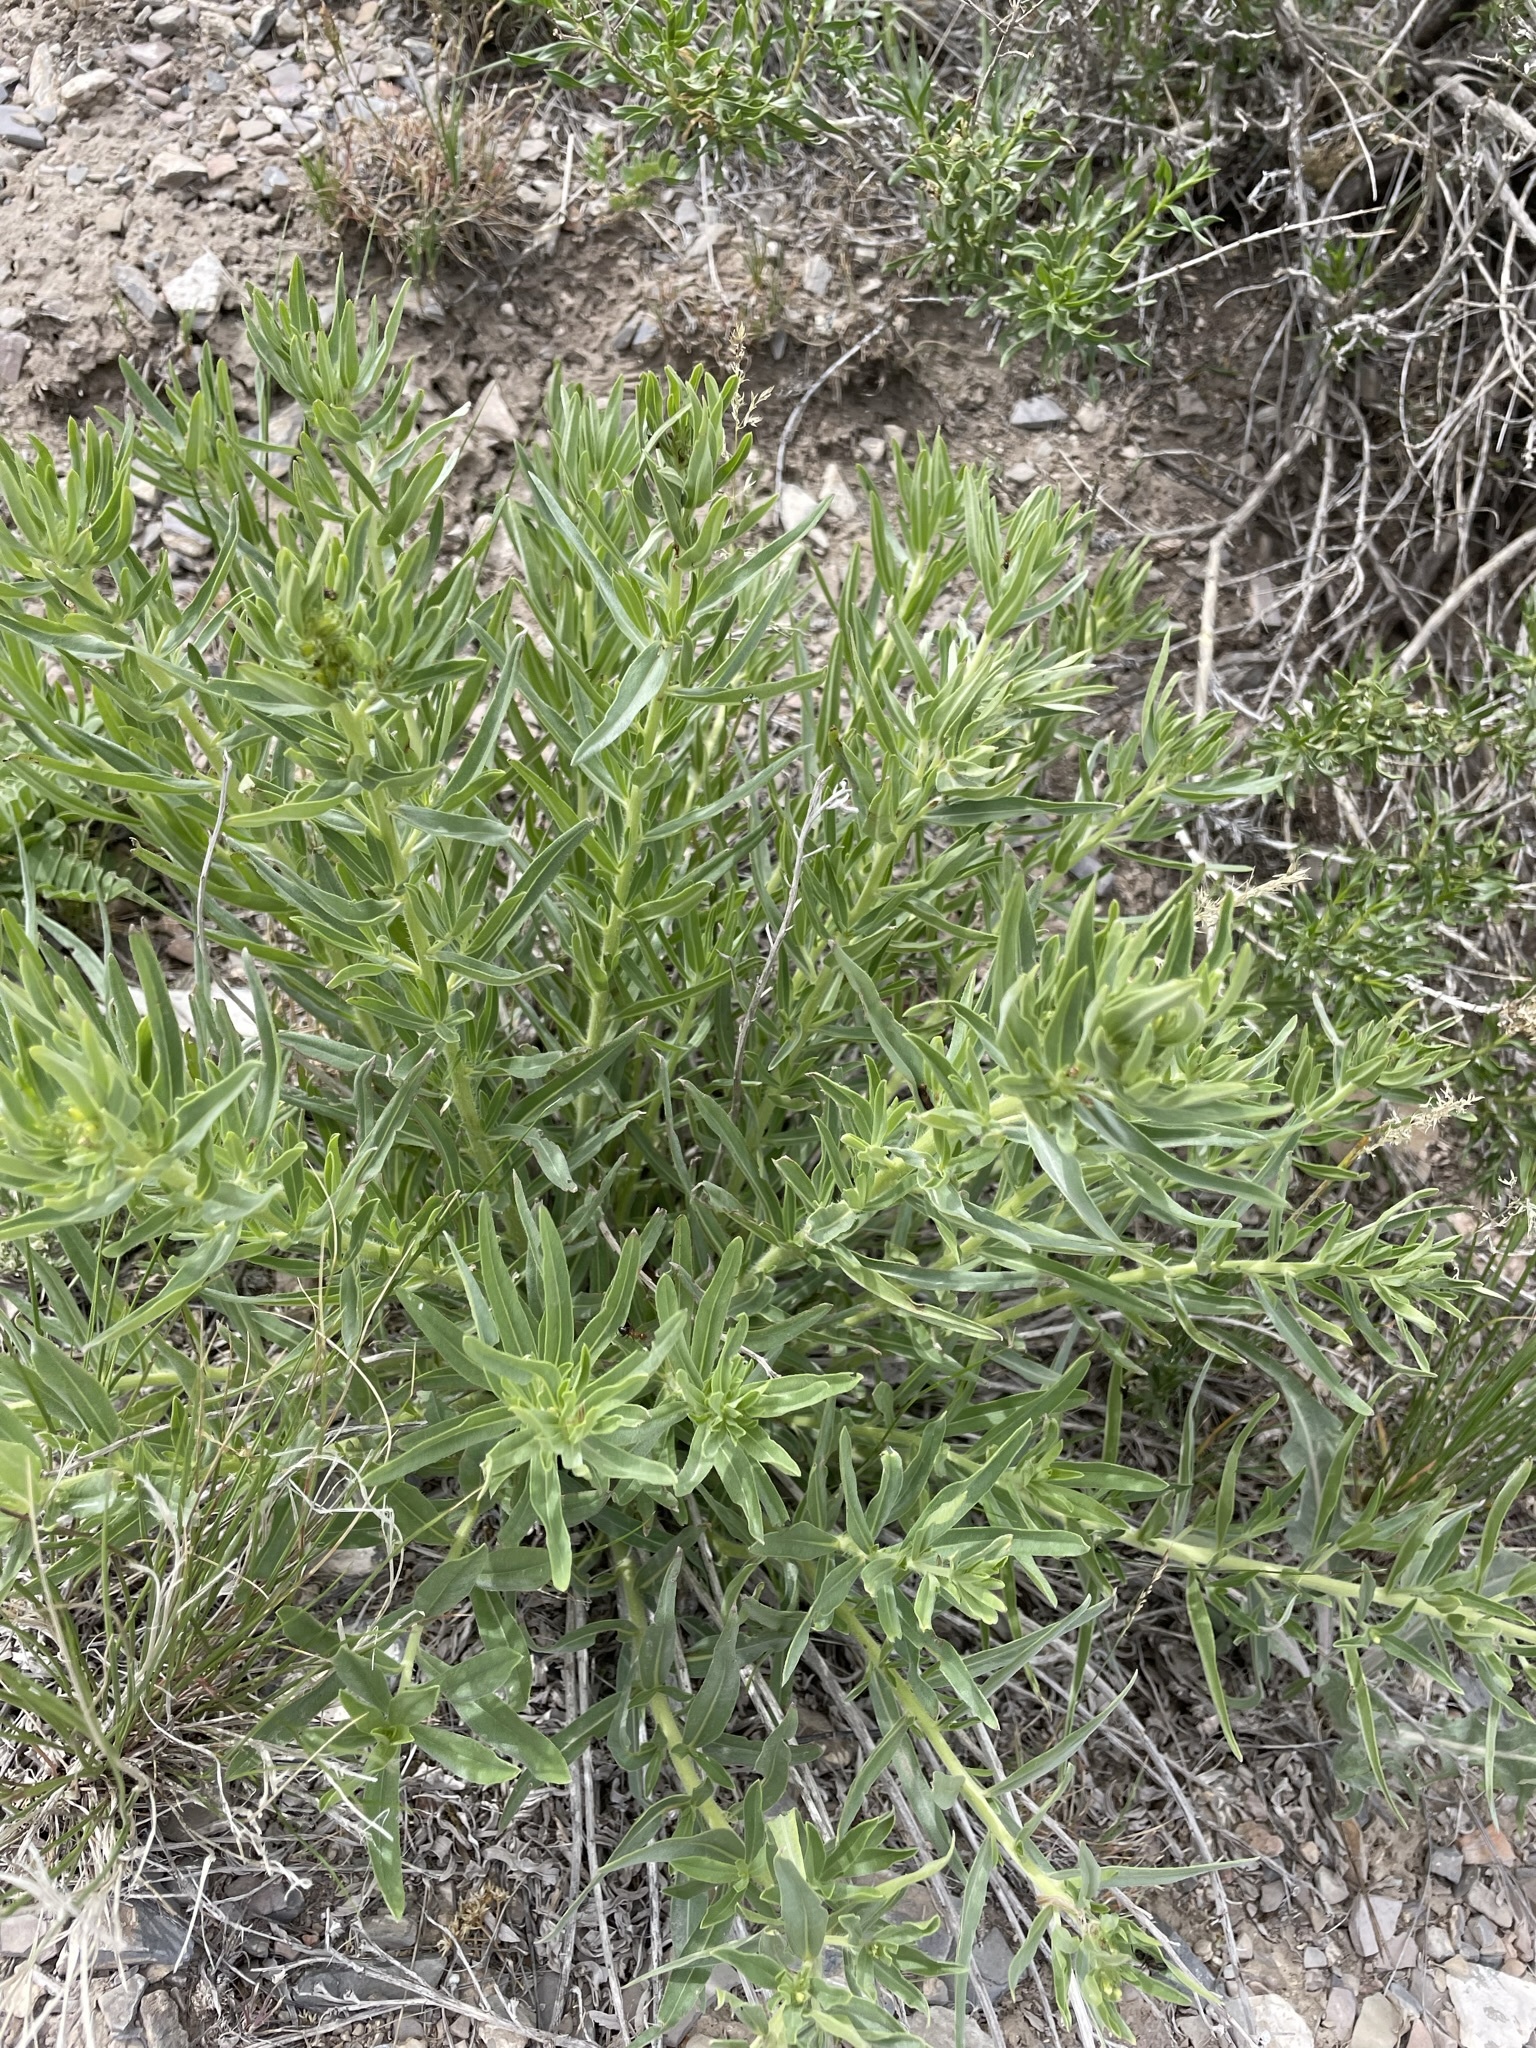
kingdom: Plantae
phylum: Tracheophyta
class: Magnoliopsida
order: Boraginales
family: Boraginaceae
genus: Lithospermum
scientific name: Lithospermum ruderale
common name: Western gromwell
